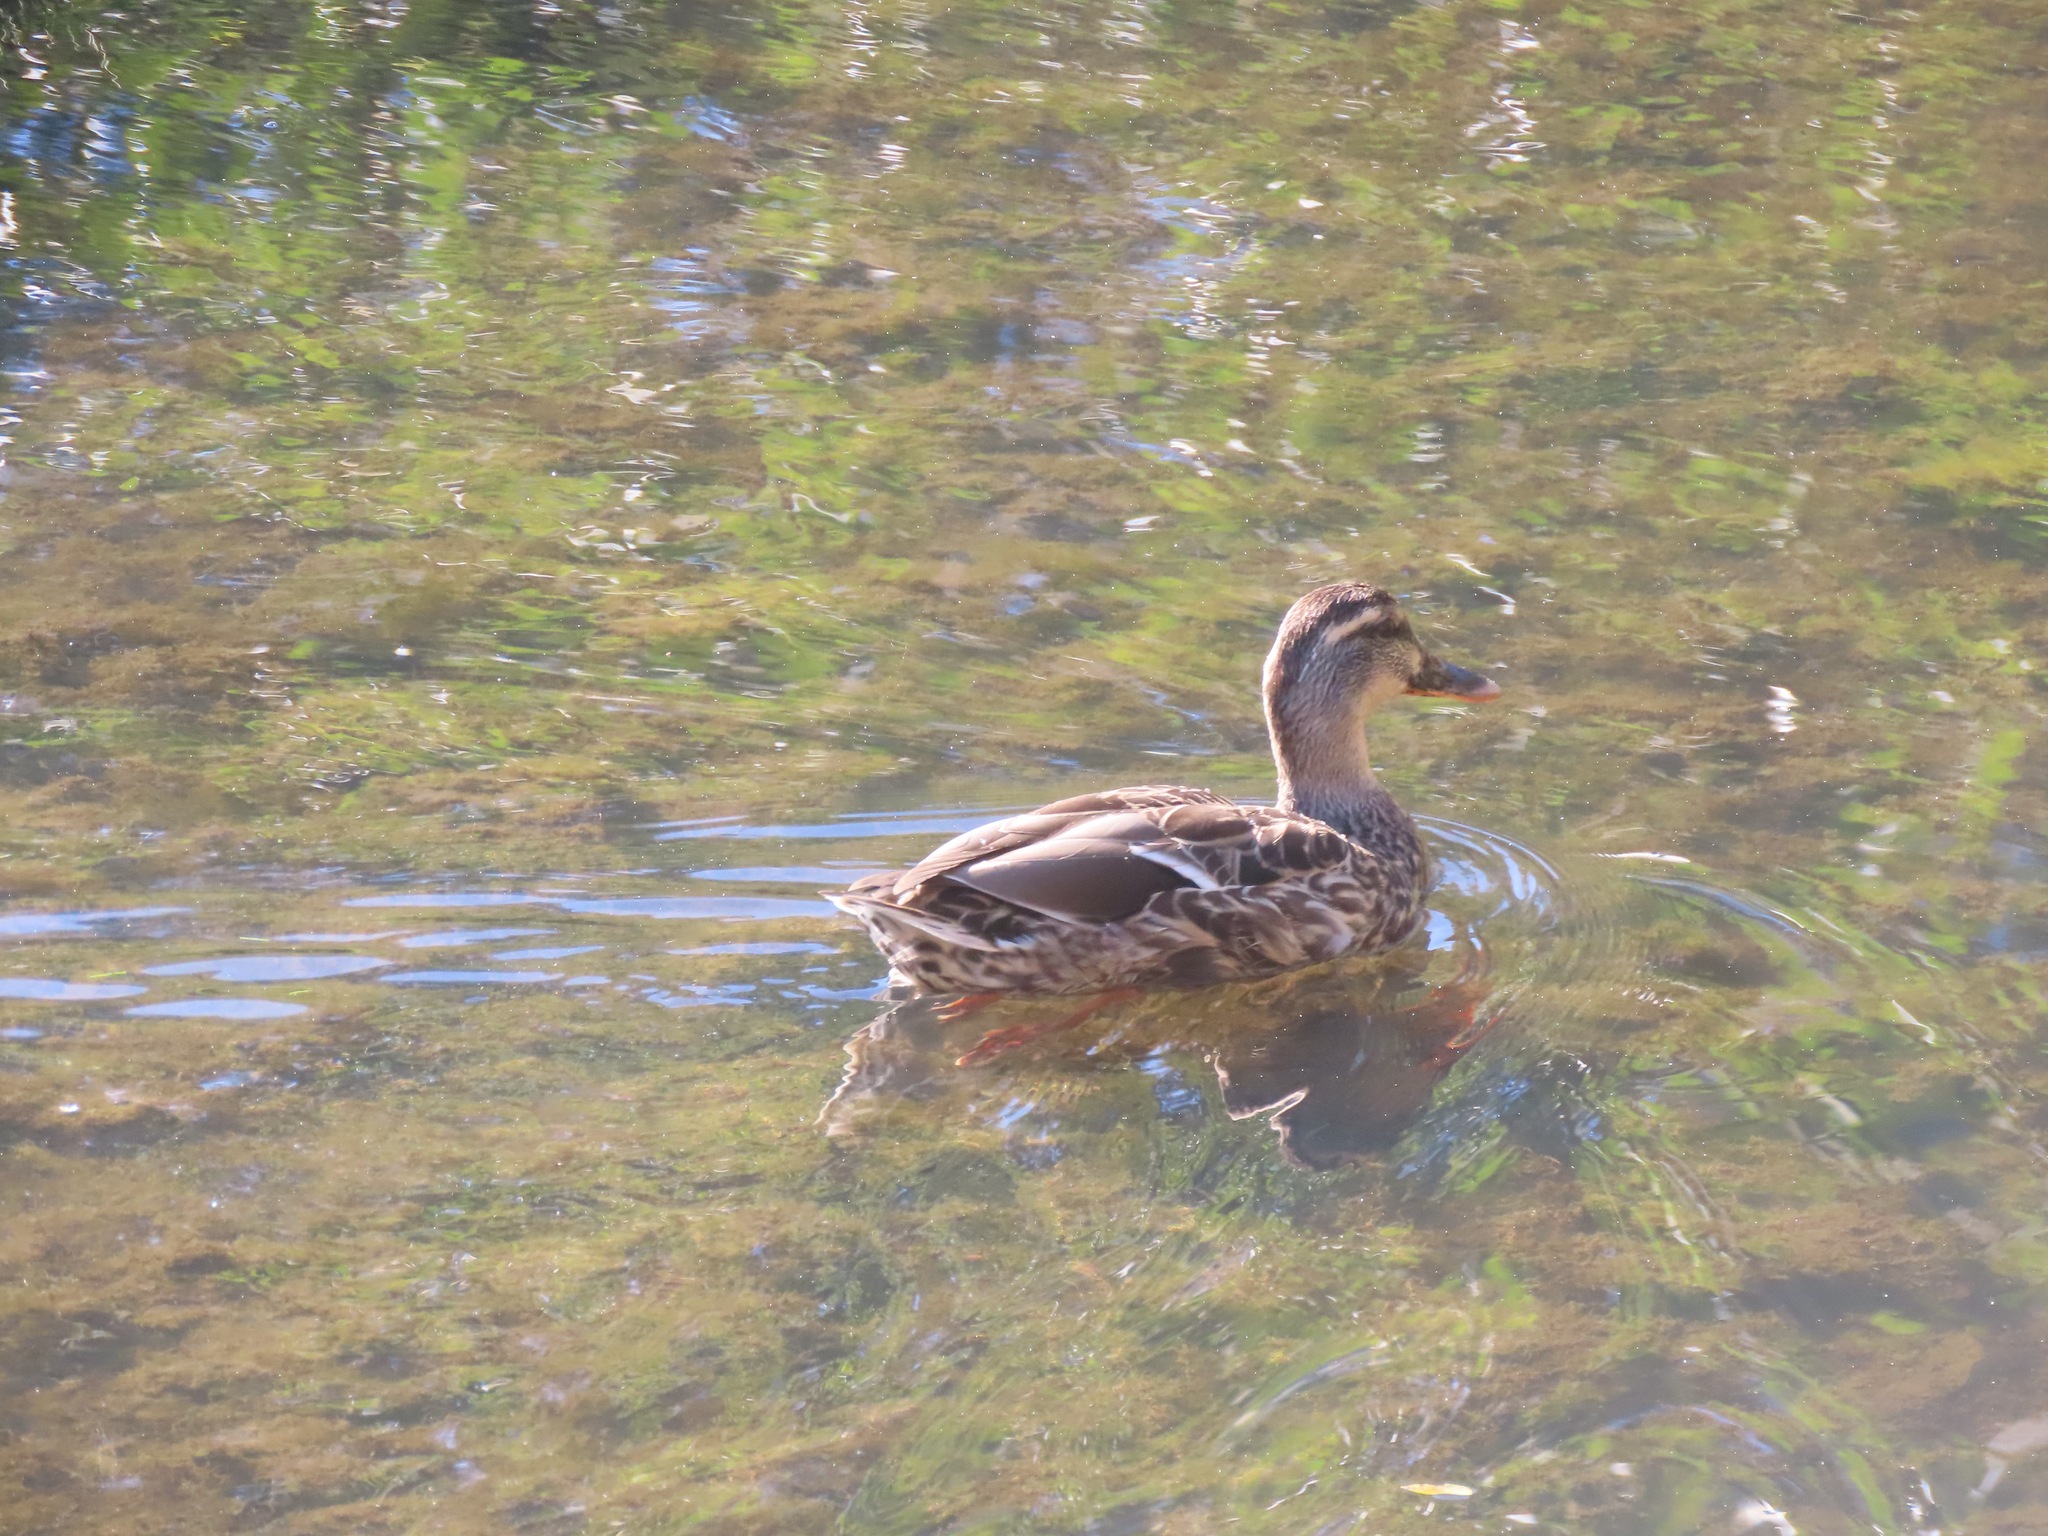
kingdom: Animalia
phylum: Chordata
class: Aves
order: Anseriformes
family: Anatidae
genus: Anas
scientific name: Anas platyrhynchos
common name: Mallard
